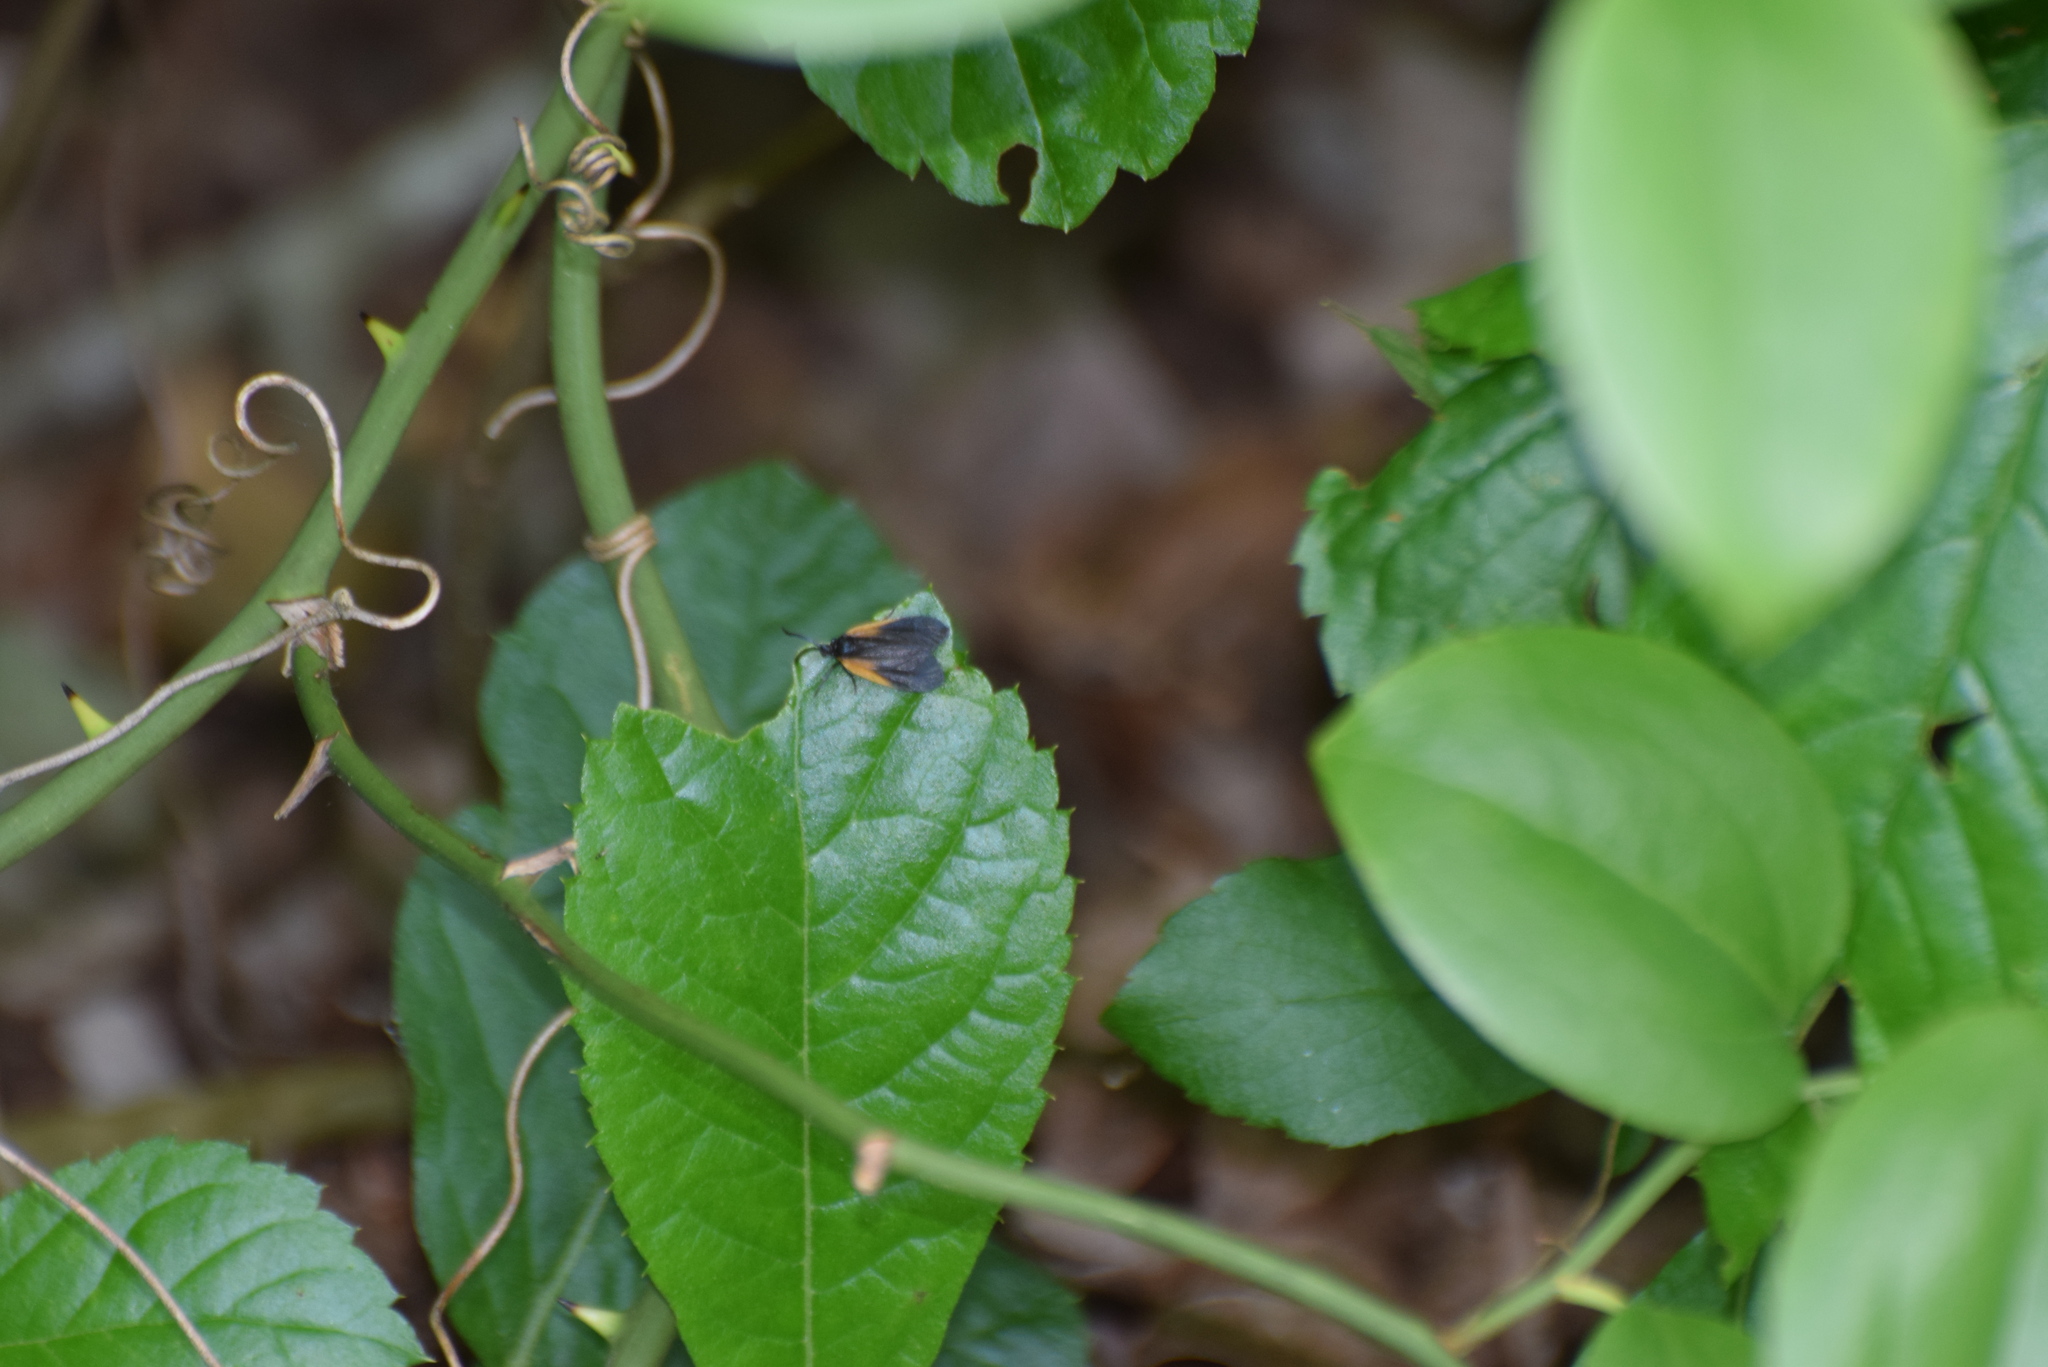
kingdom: Animalia
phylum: Arthropoda
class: Insecta
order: Lepidoptera
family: Zygaenidae
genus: Malthaca
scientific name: Malthaca dimidiata
